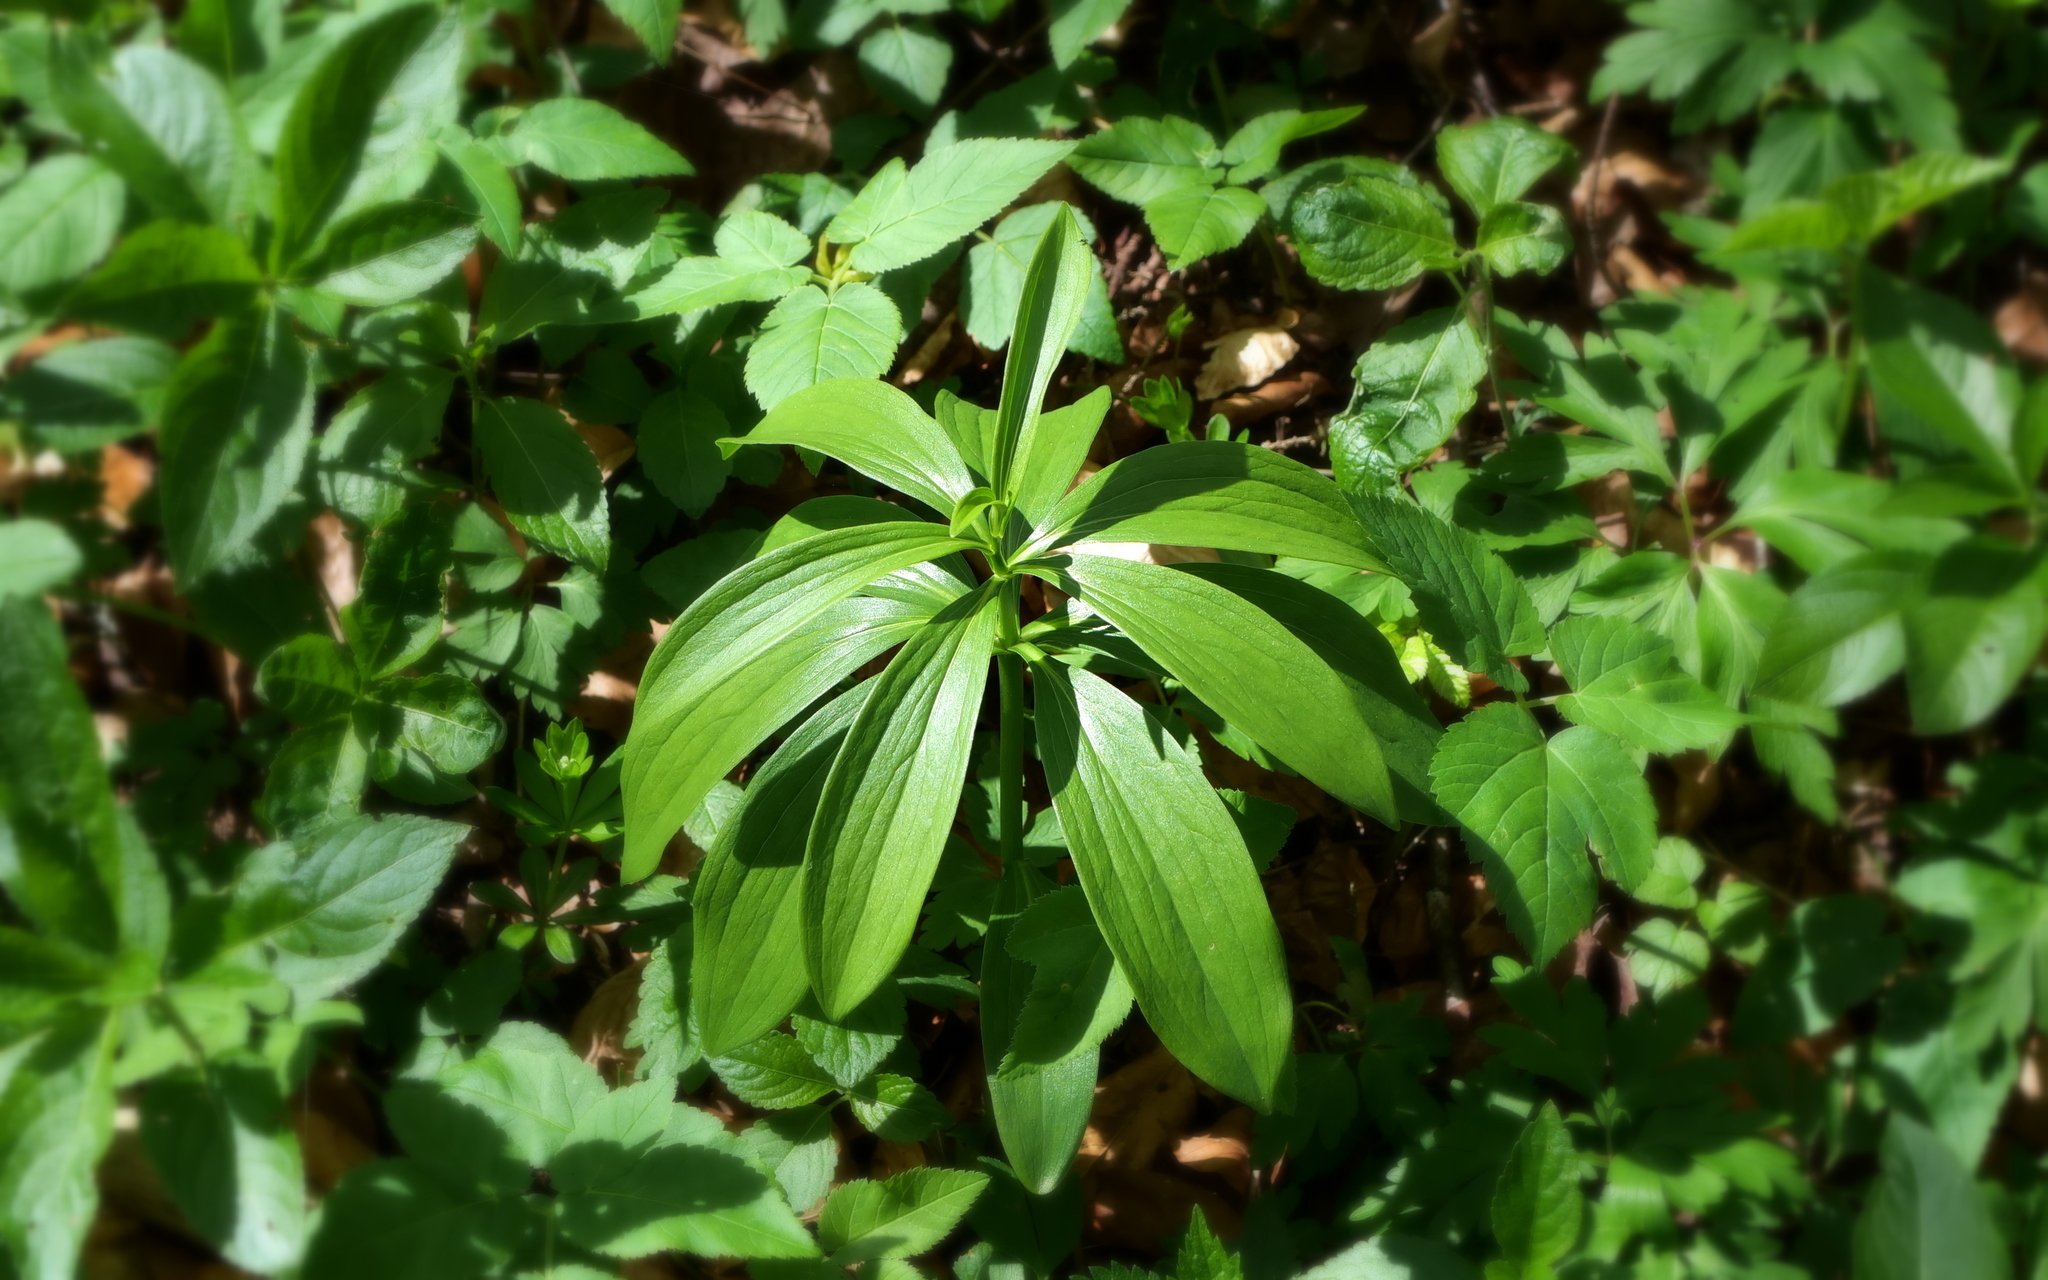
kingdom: Plantae
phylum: Tracheophyta
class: Liliopsida
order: Liliales
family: Liliaceae
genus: Lilium
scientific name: Lilium martagon
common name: Martagon lily
